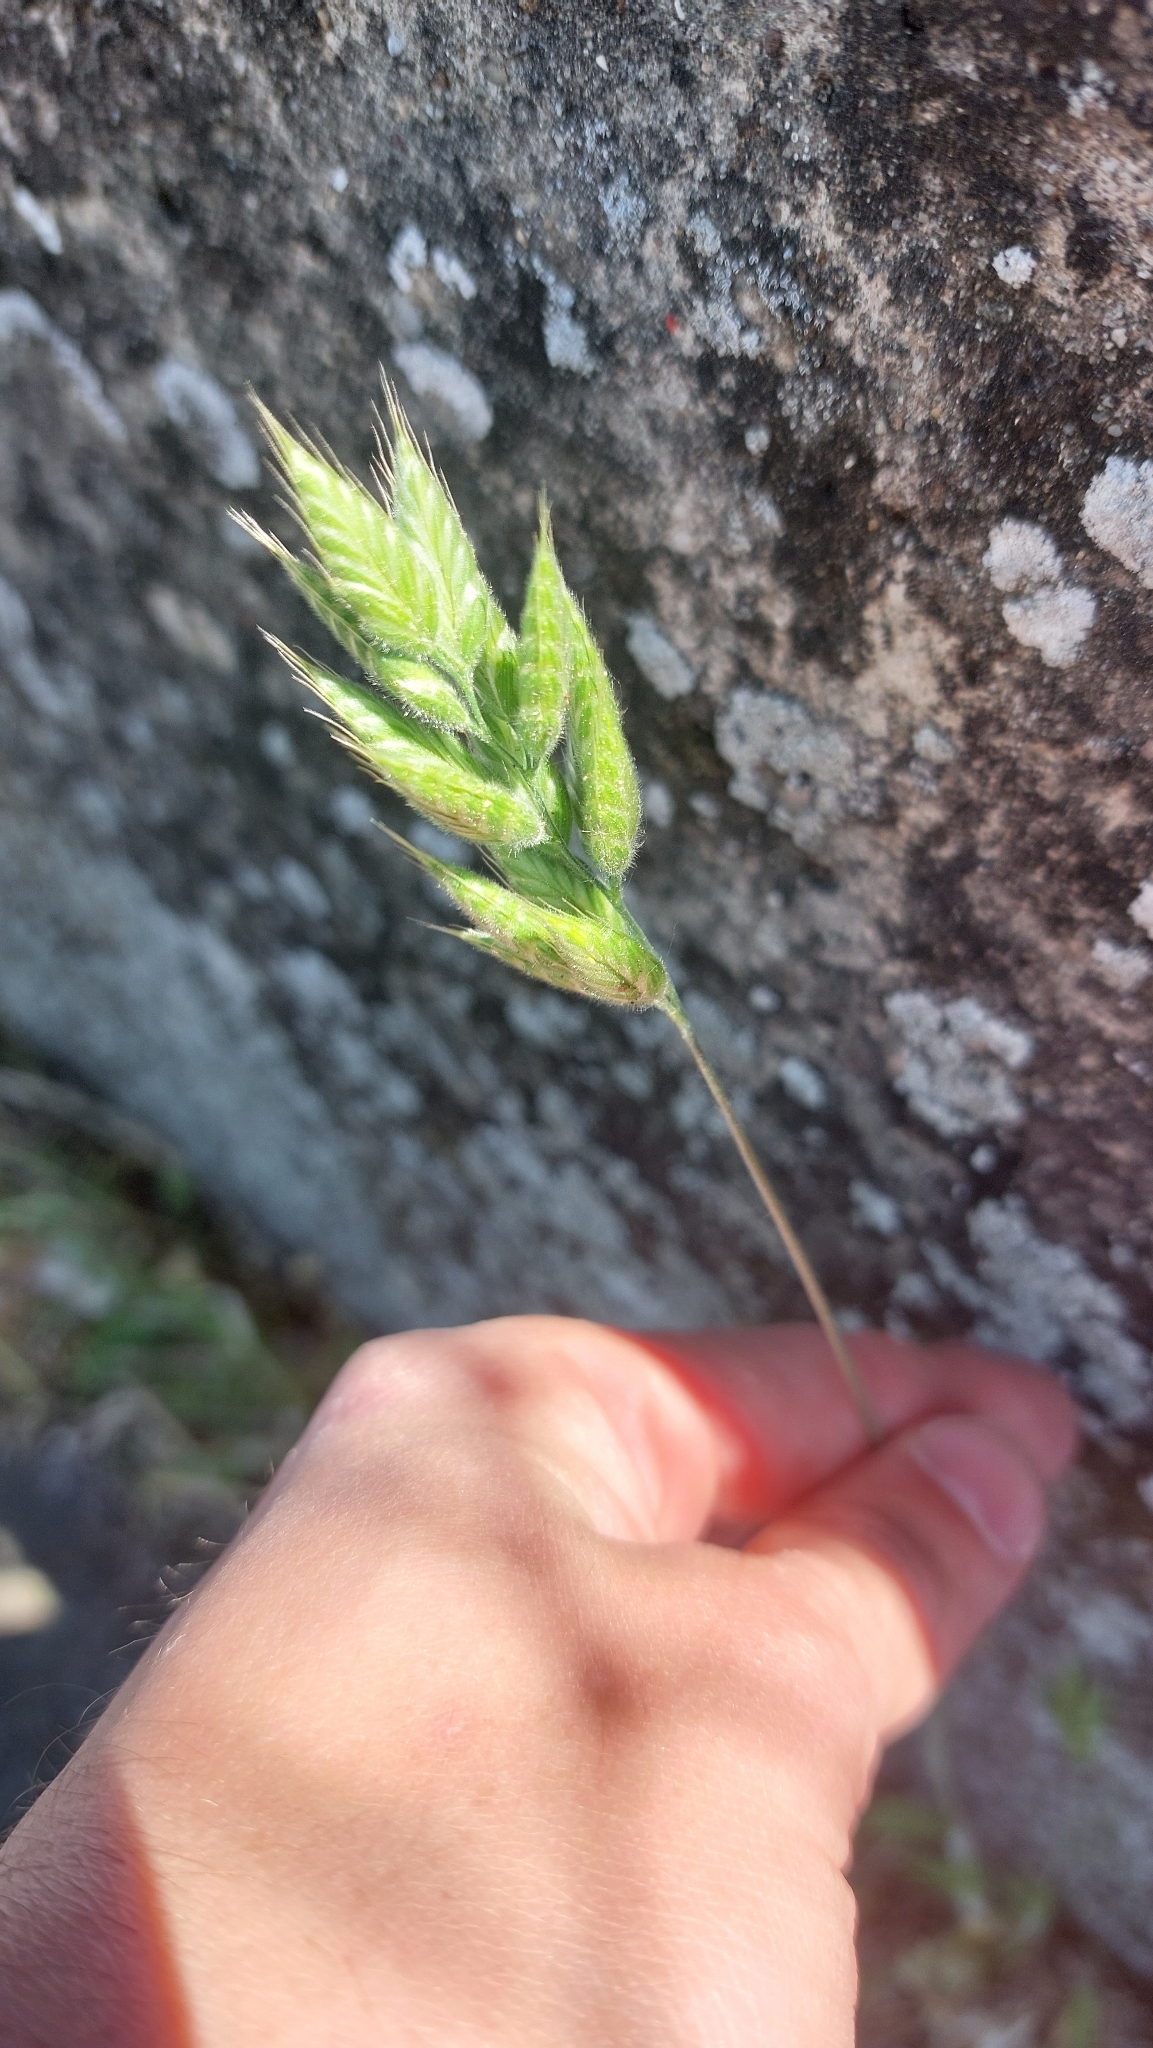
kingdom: Plantae
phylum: Tracheophyta
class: Liliopsida
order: Poales
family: Poaceae
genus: Bromus
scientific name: Bromus hordeaceus
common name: Soft brome
